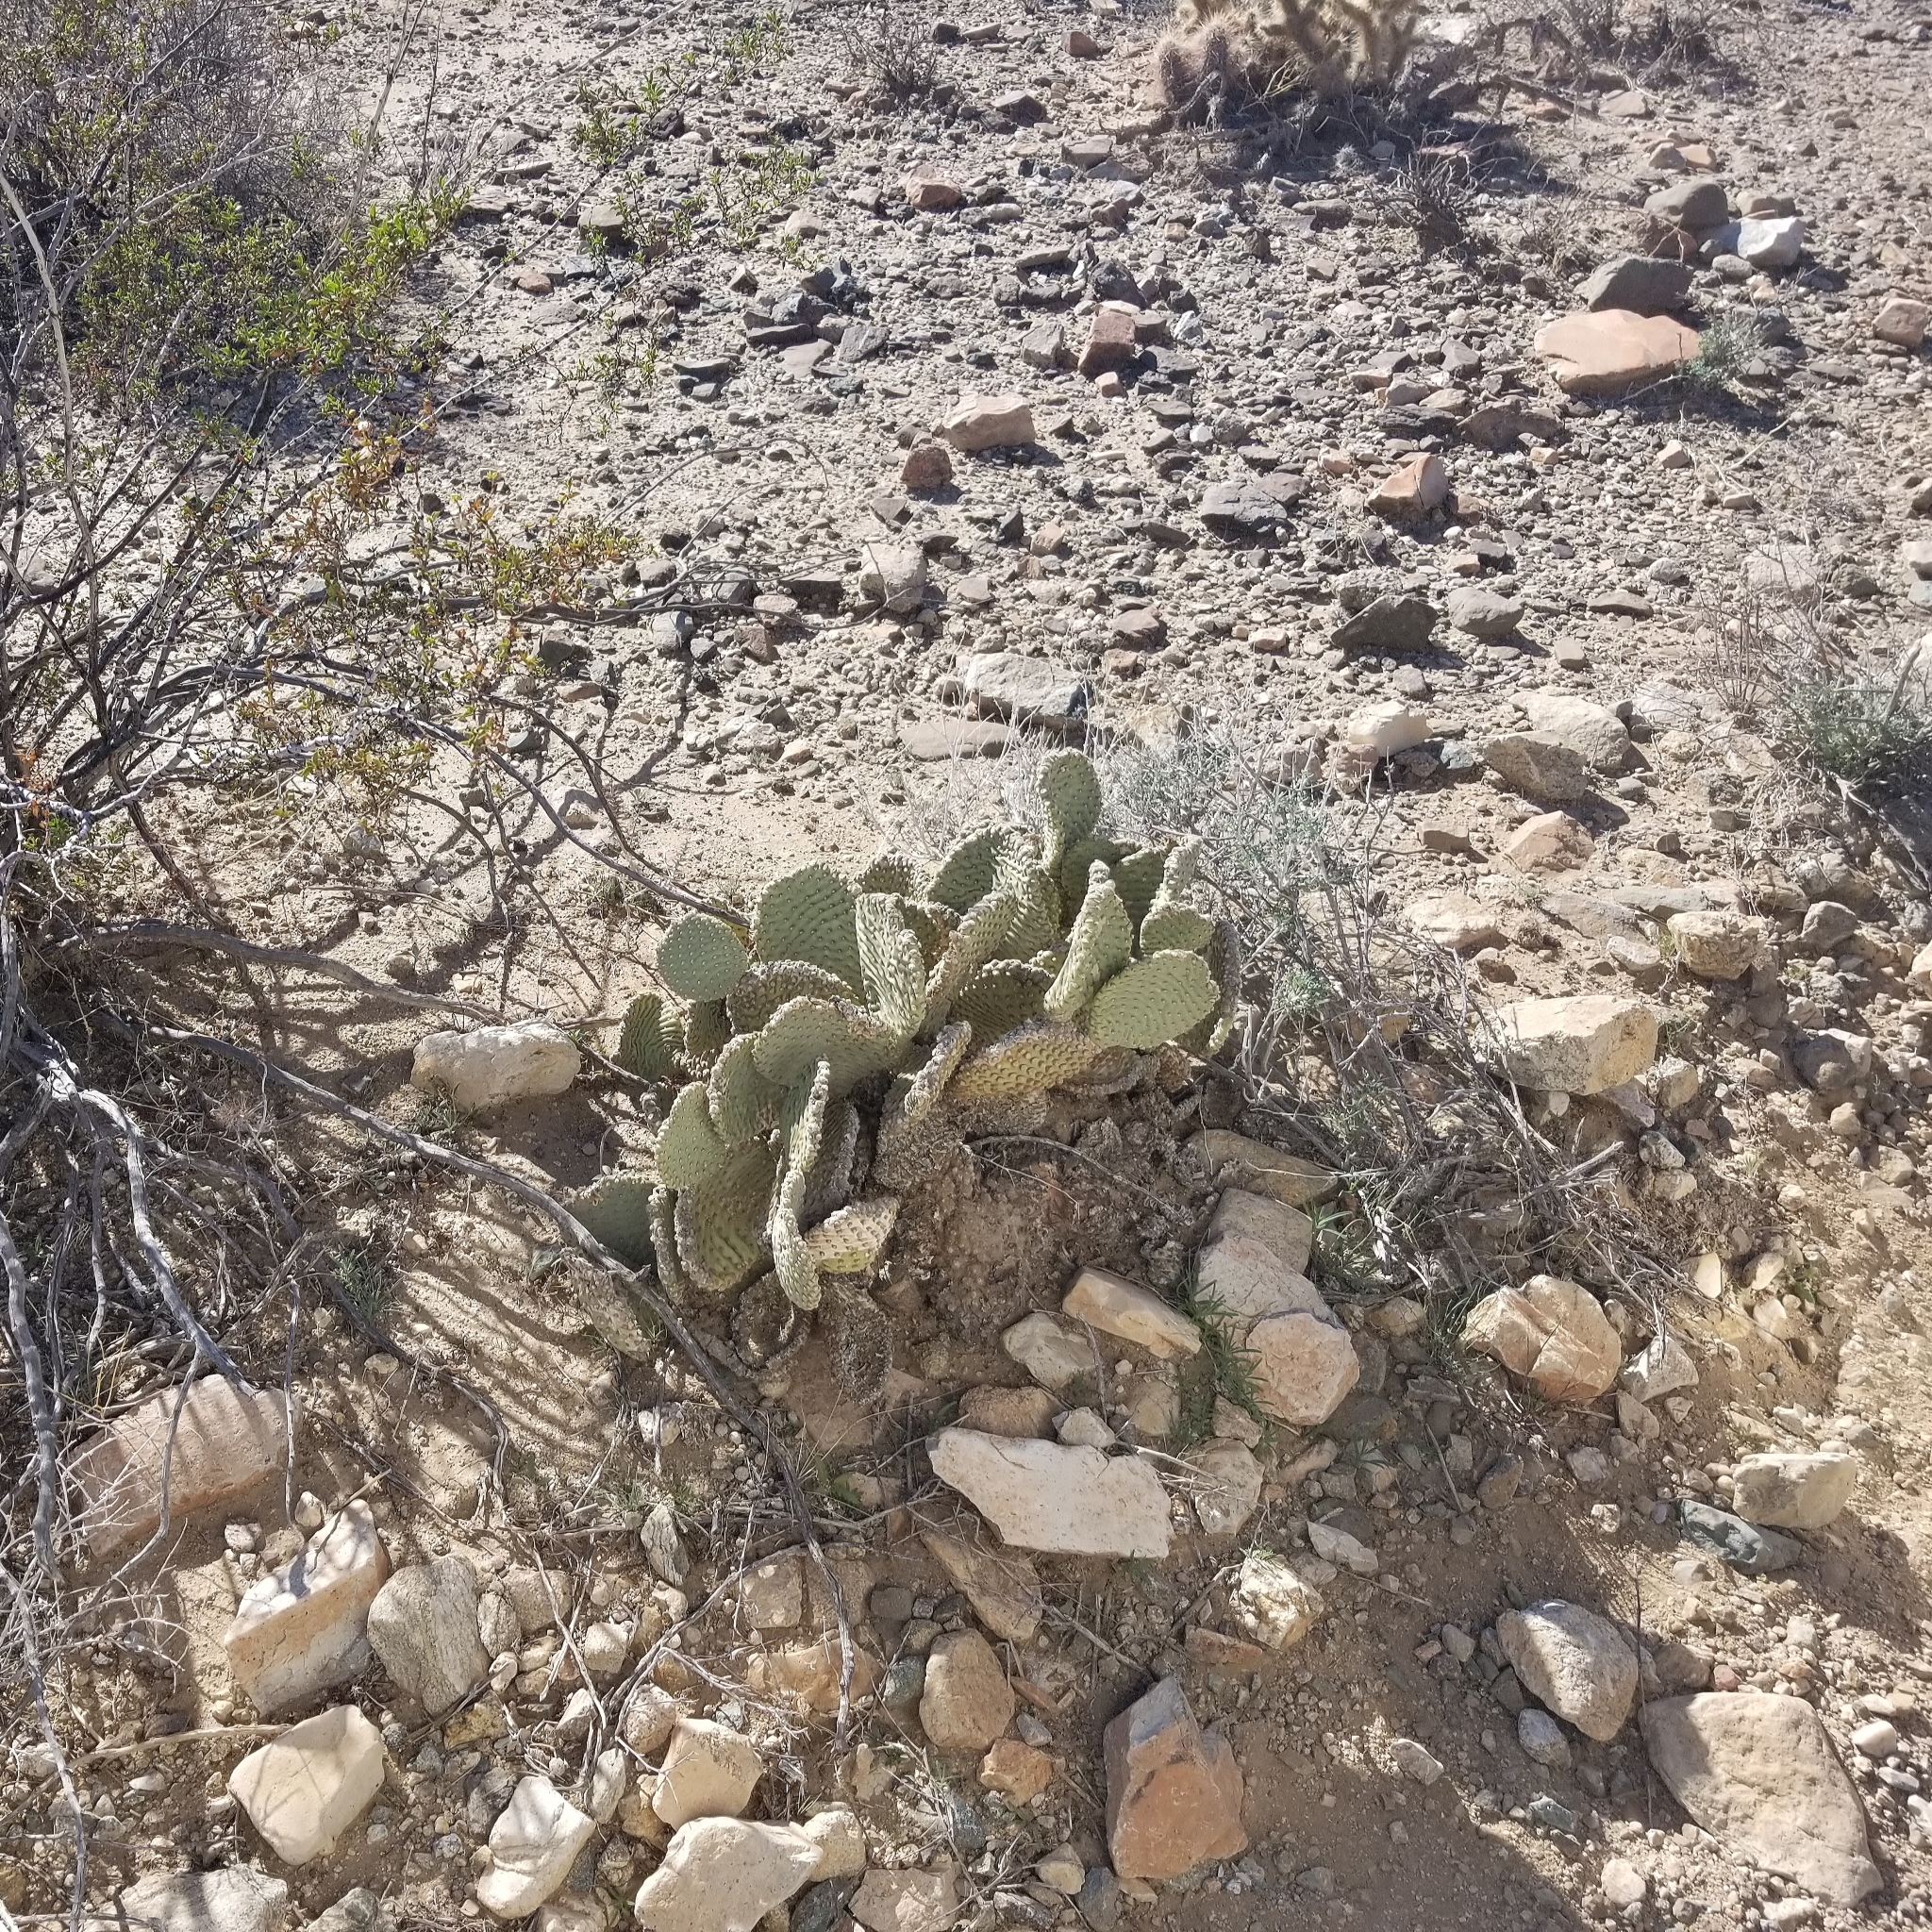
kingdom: Plantae
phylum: Tracheophyta
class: Magnoliopsida
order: Caryophyllales
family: Cactaceae
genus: Opuntia
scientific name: Opuntia basilaris
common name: Beavertail prickly-pear
